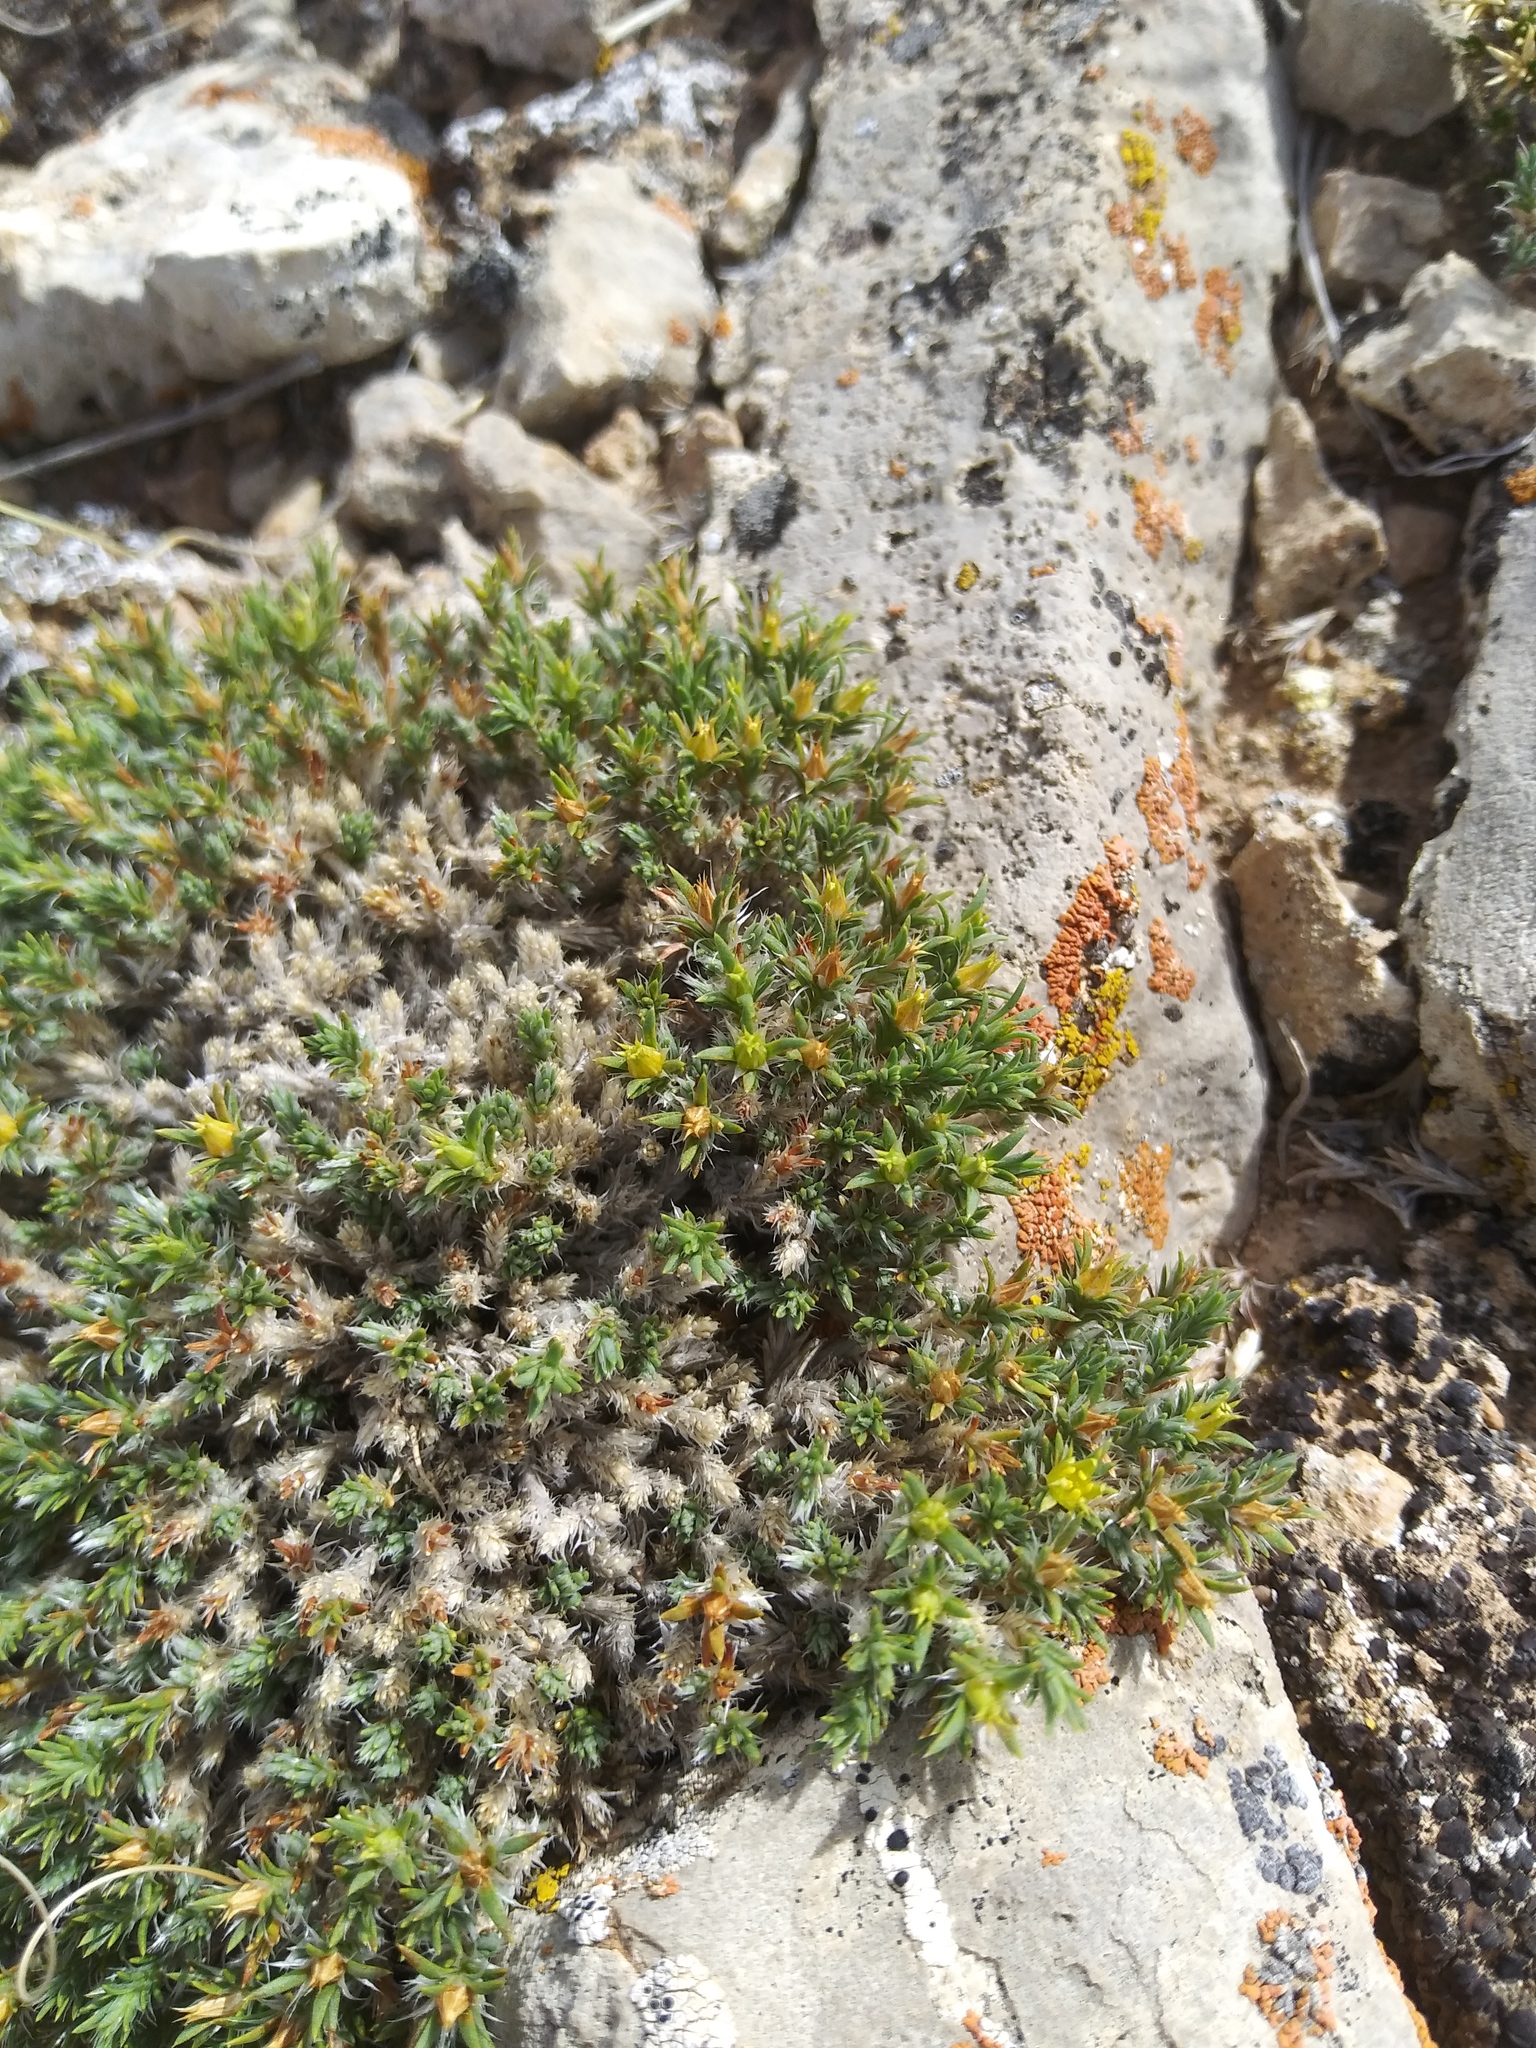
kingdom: Plantae
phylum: Tracheophyta
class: Magnoliopsida
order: Caryophyllales
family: Caryophyllaceae
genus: Paronychia
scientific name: Paronychia sessiliflora
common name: Creeping nailwort
